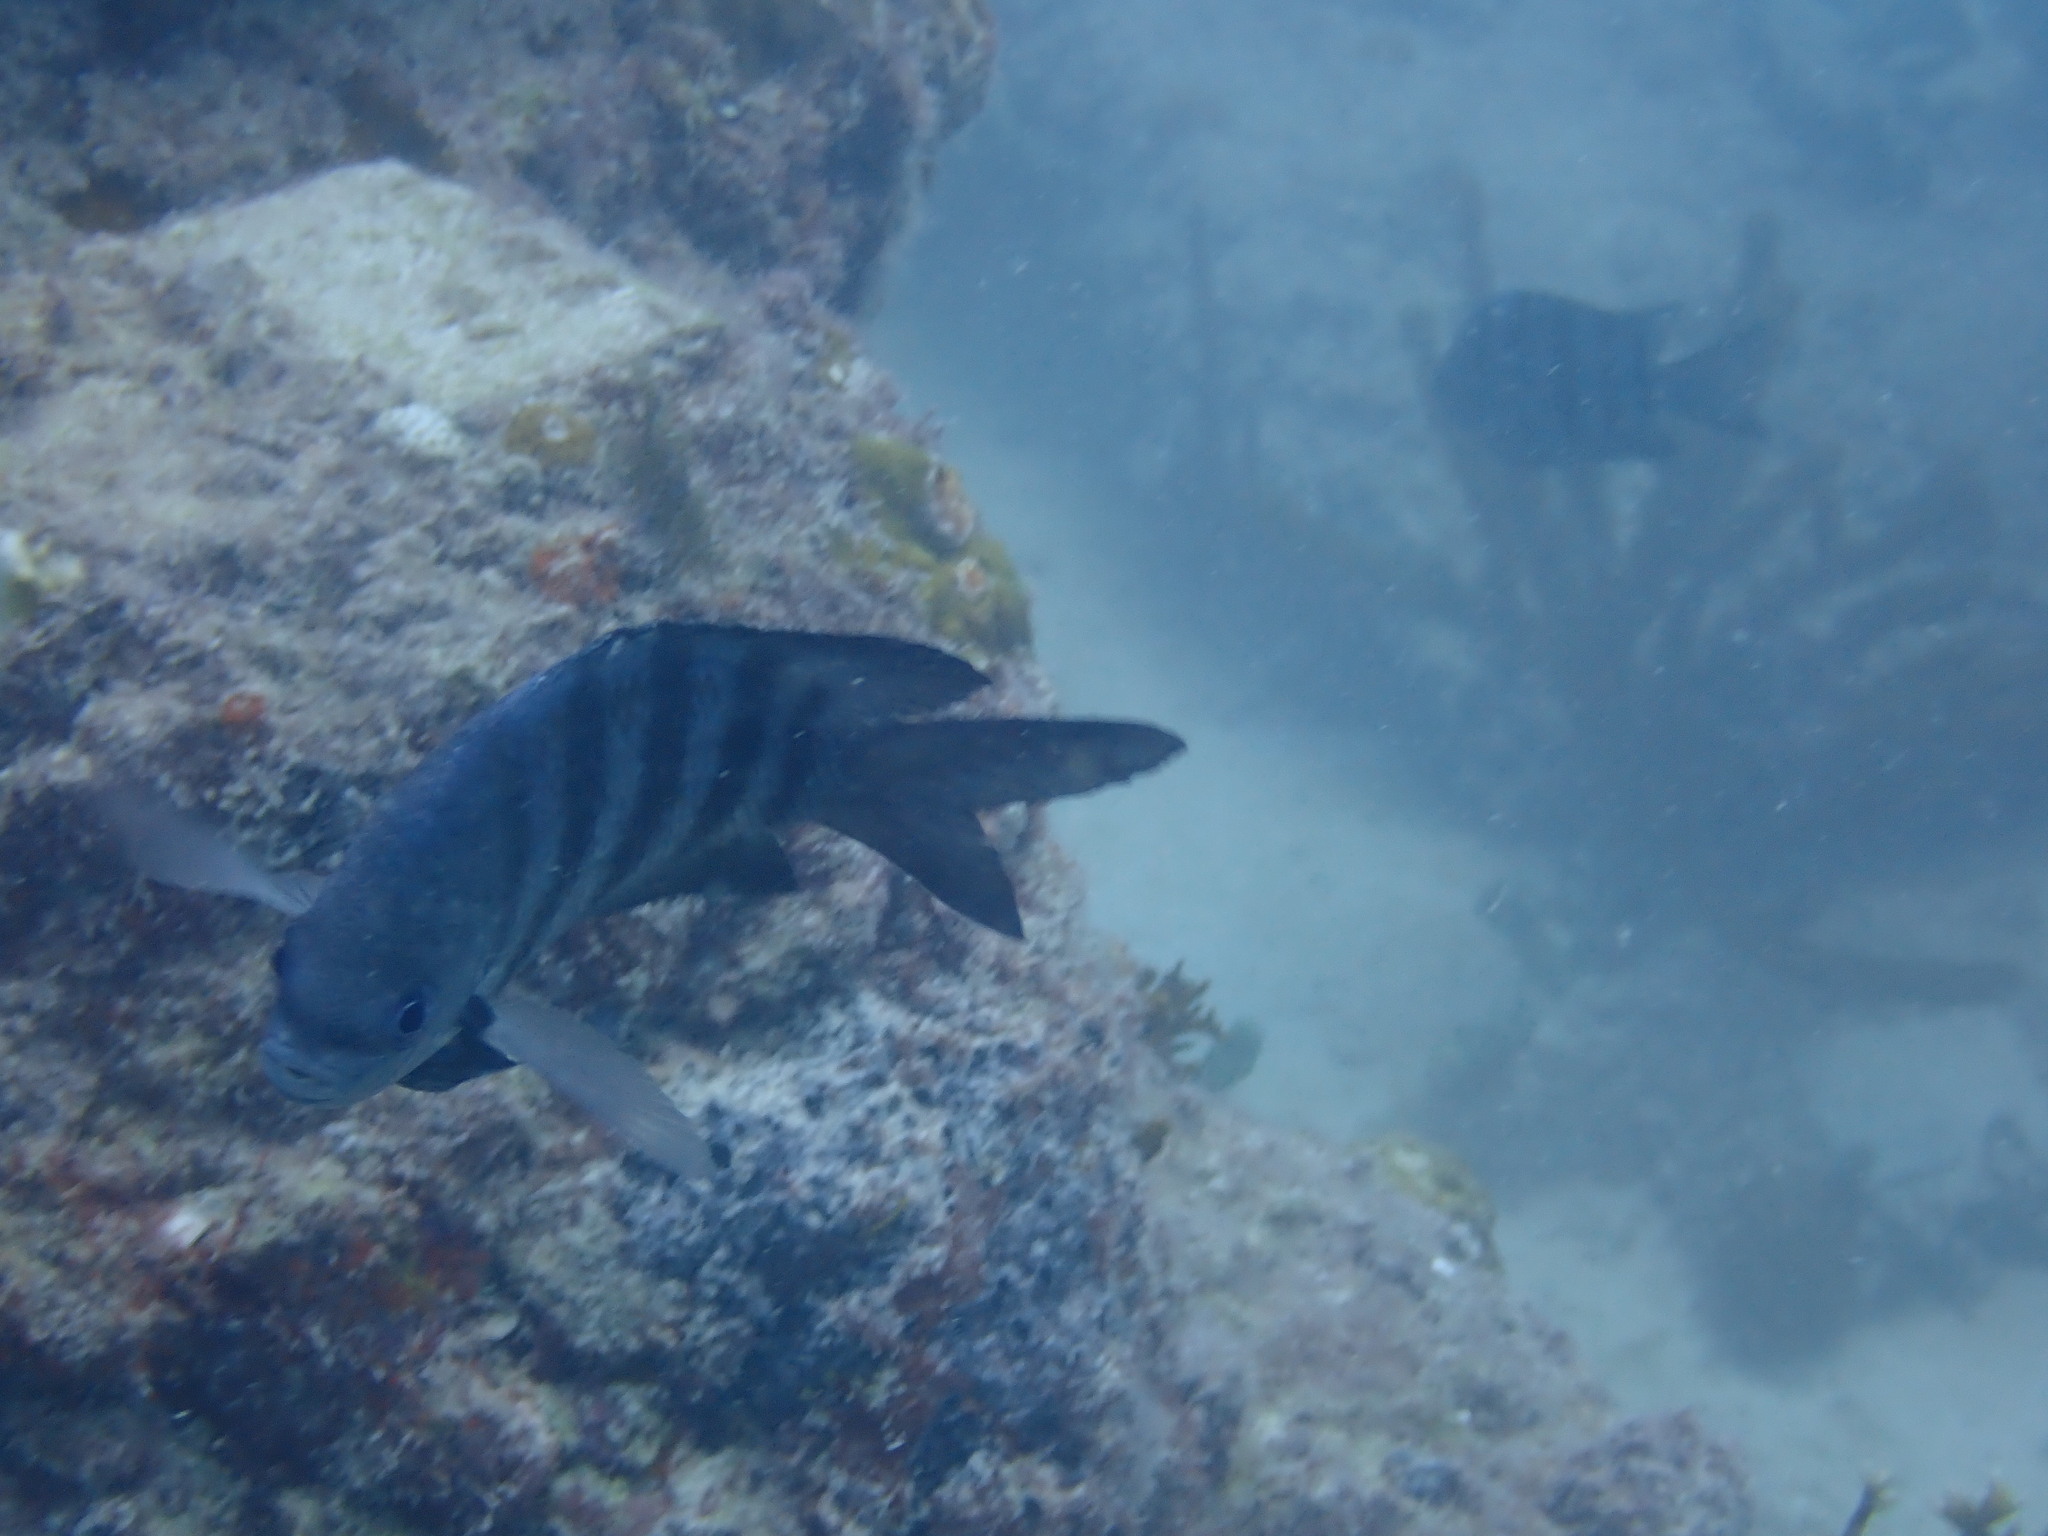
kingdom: Animalia
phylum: Chordata
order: Perciformes
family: Pomacentridae
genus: Abudefduf
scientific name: Abudefduf saxatilis
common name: Sergeant major
